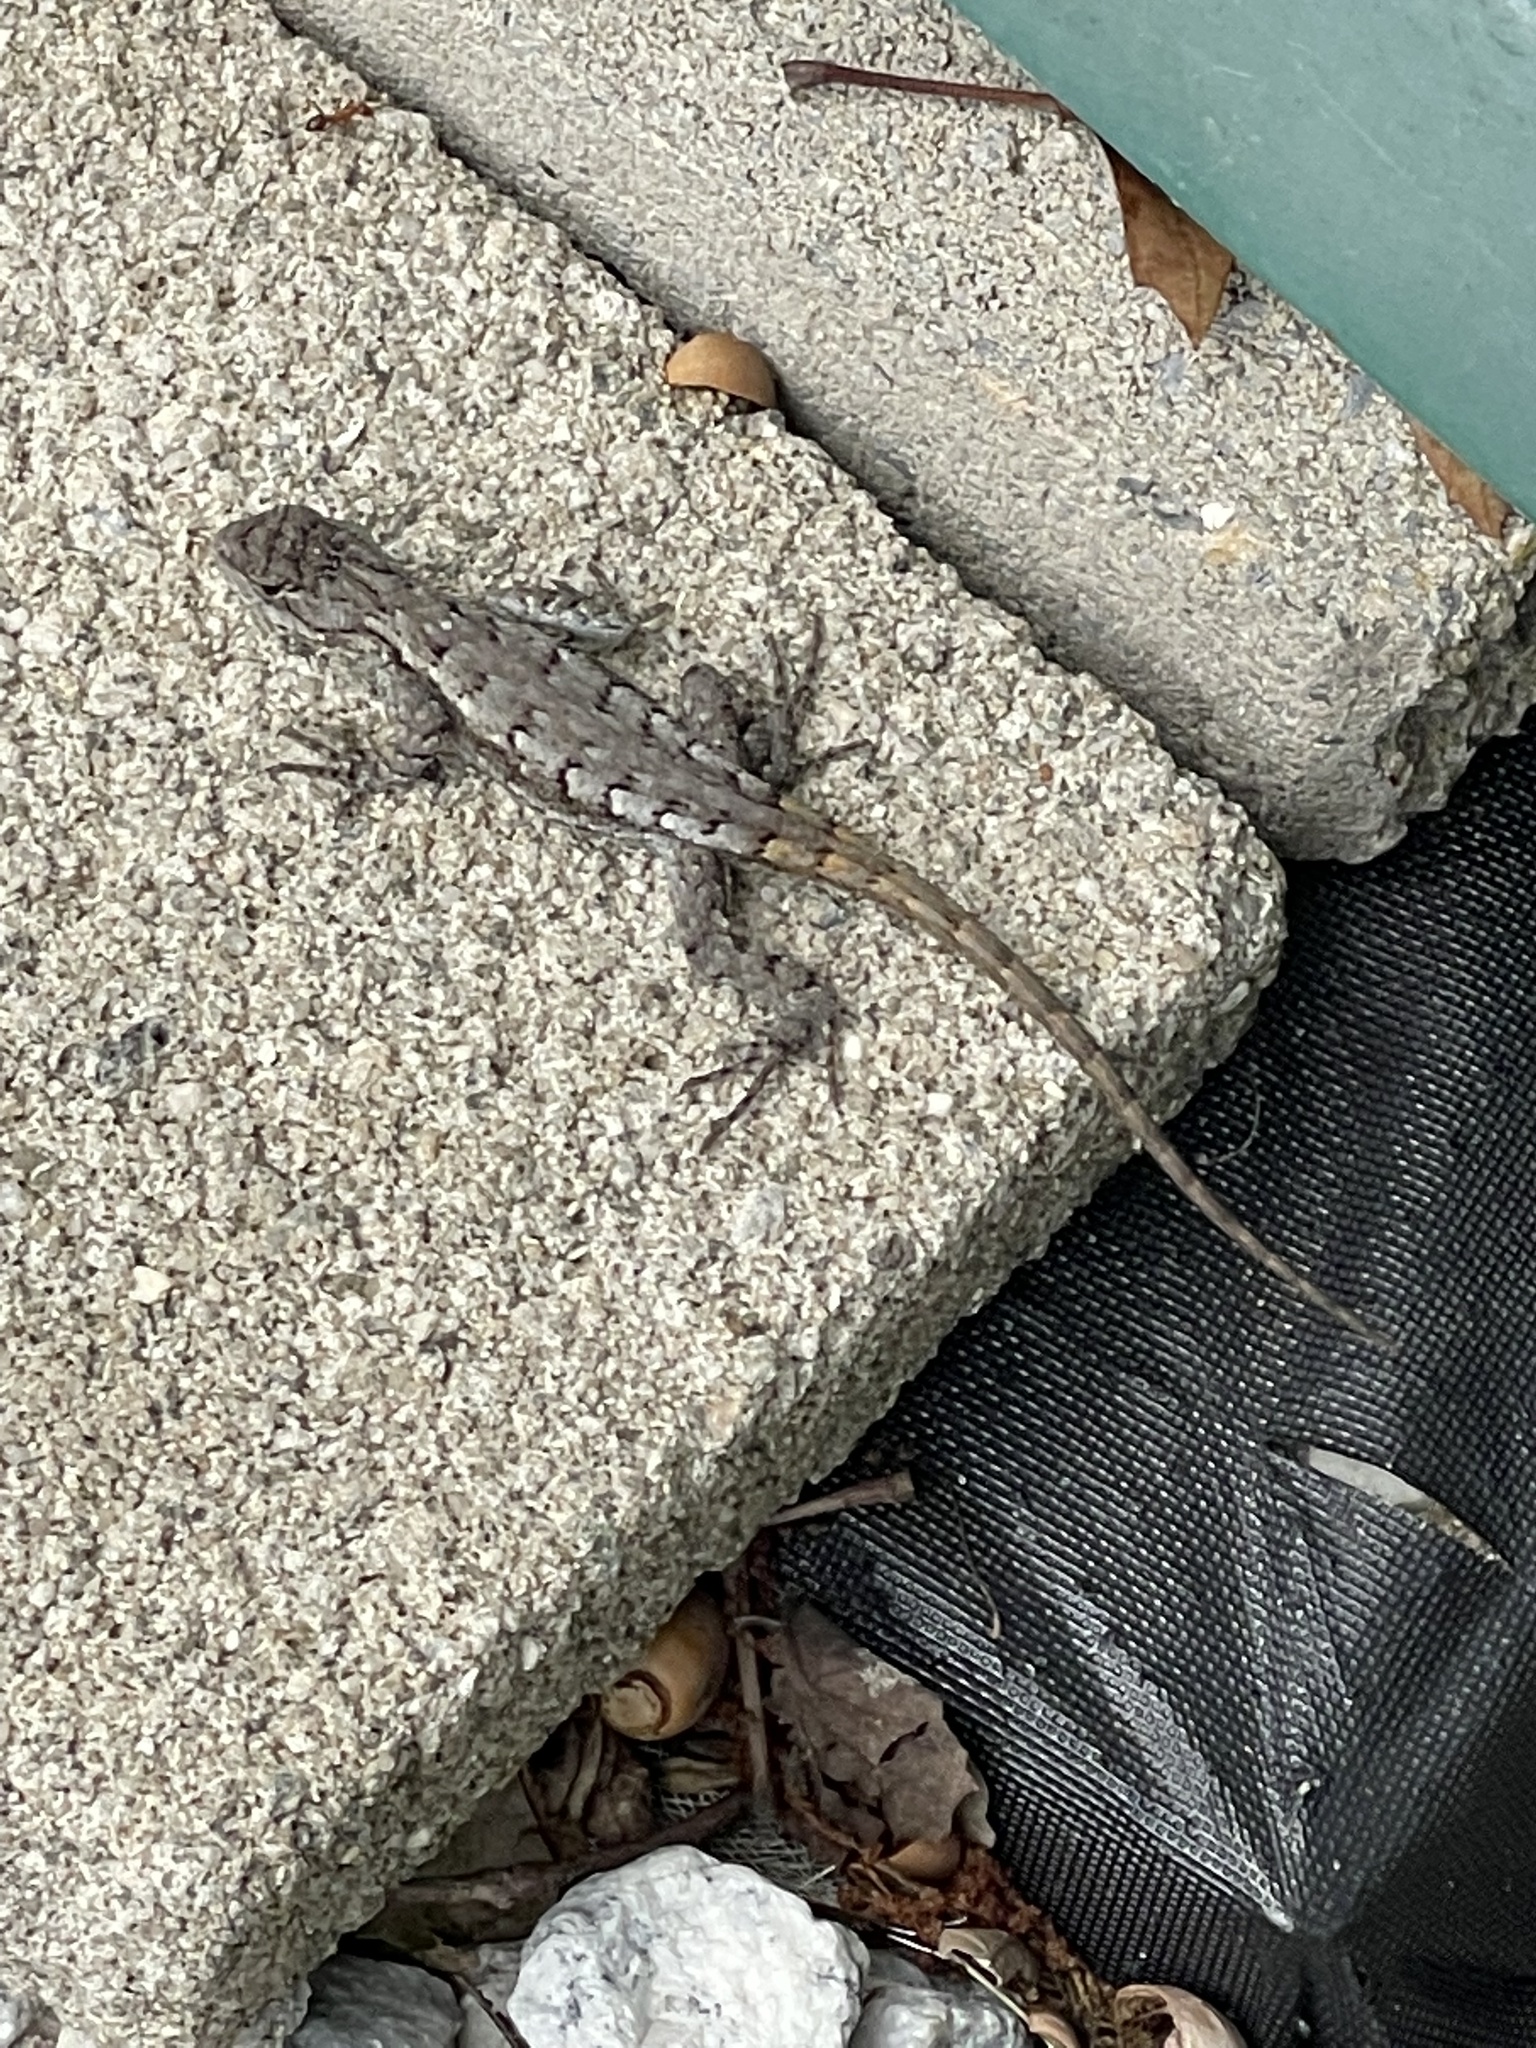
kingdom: Animalia
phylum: Chordata
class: Squamata
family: Phrynosomatidae
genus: Sceloporus
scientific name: Sceloporus undulatus
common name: Eastern fence lizard
